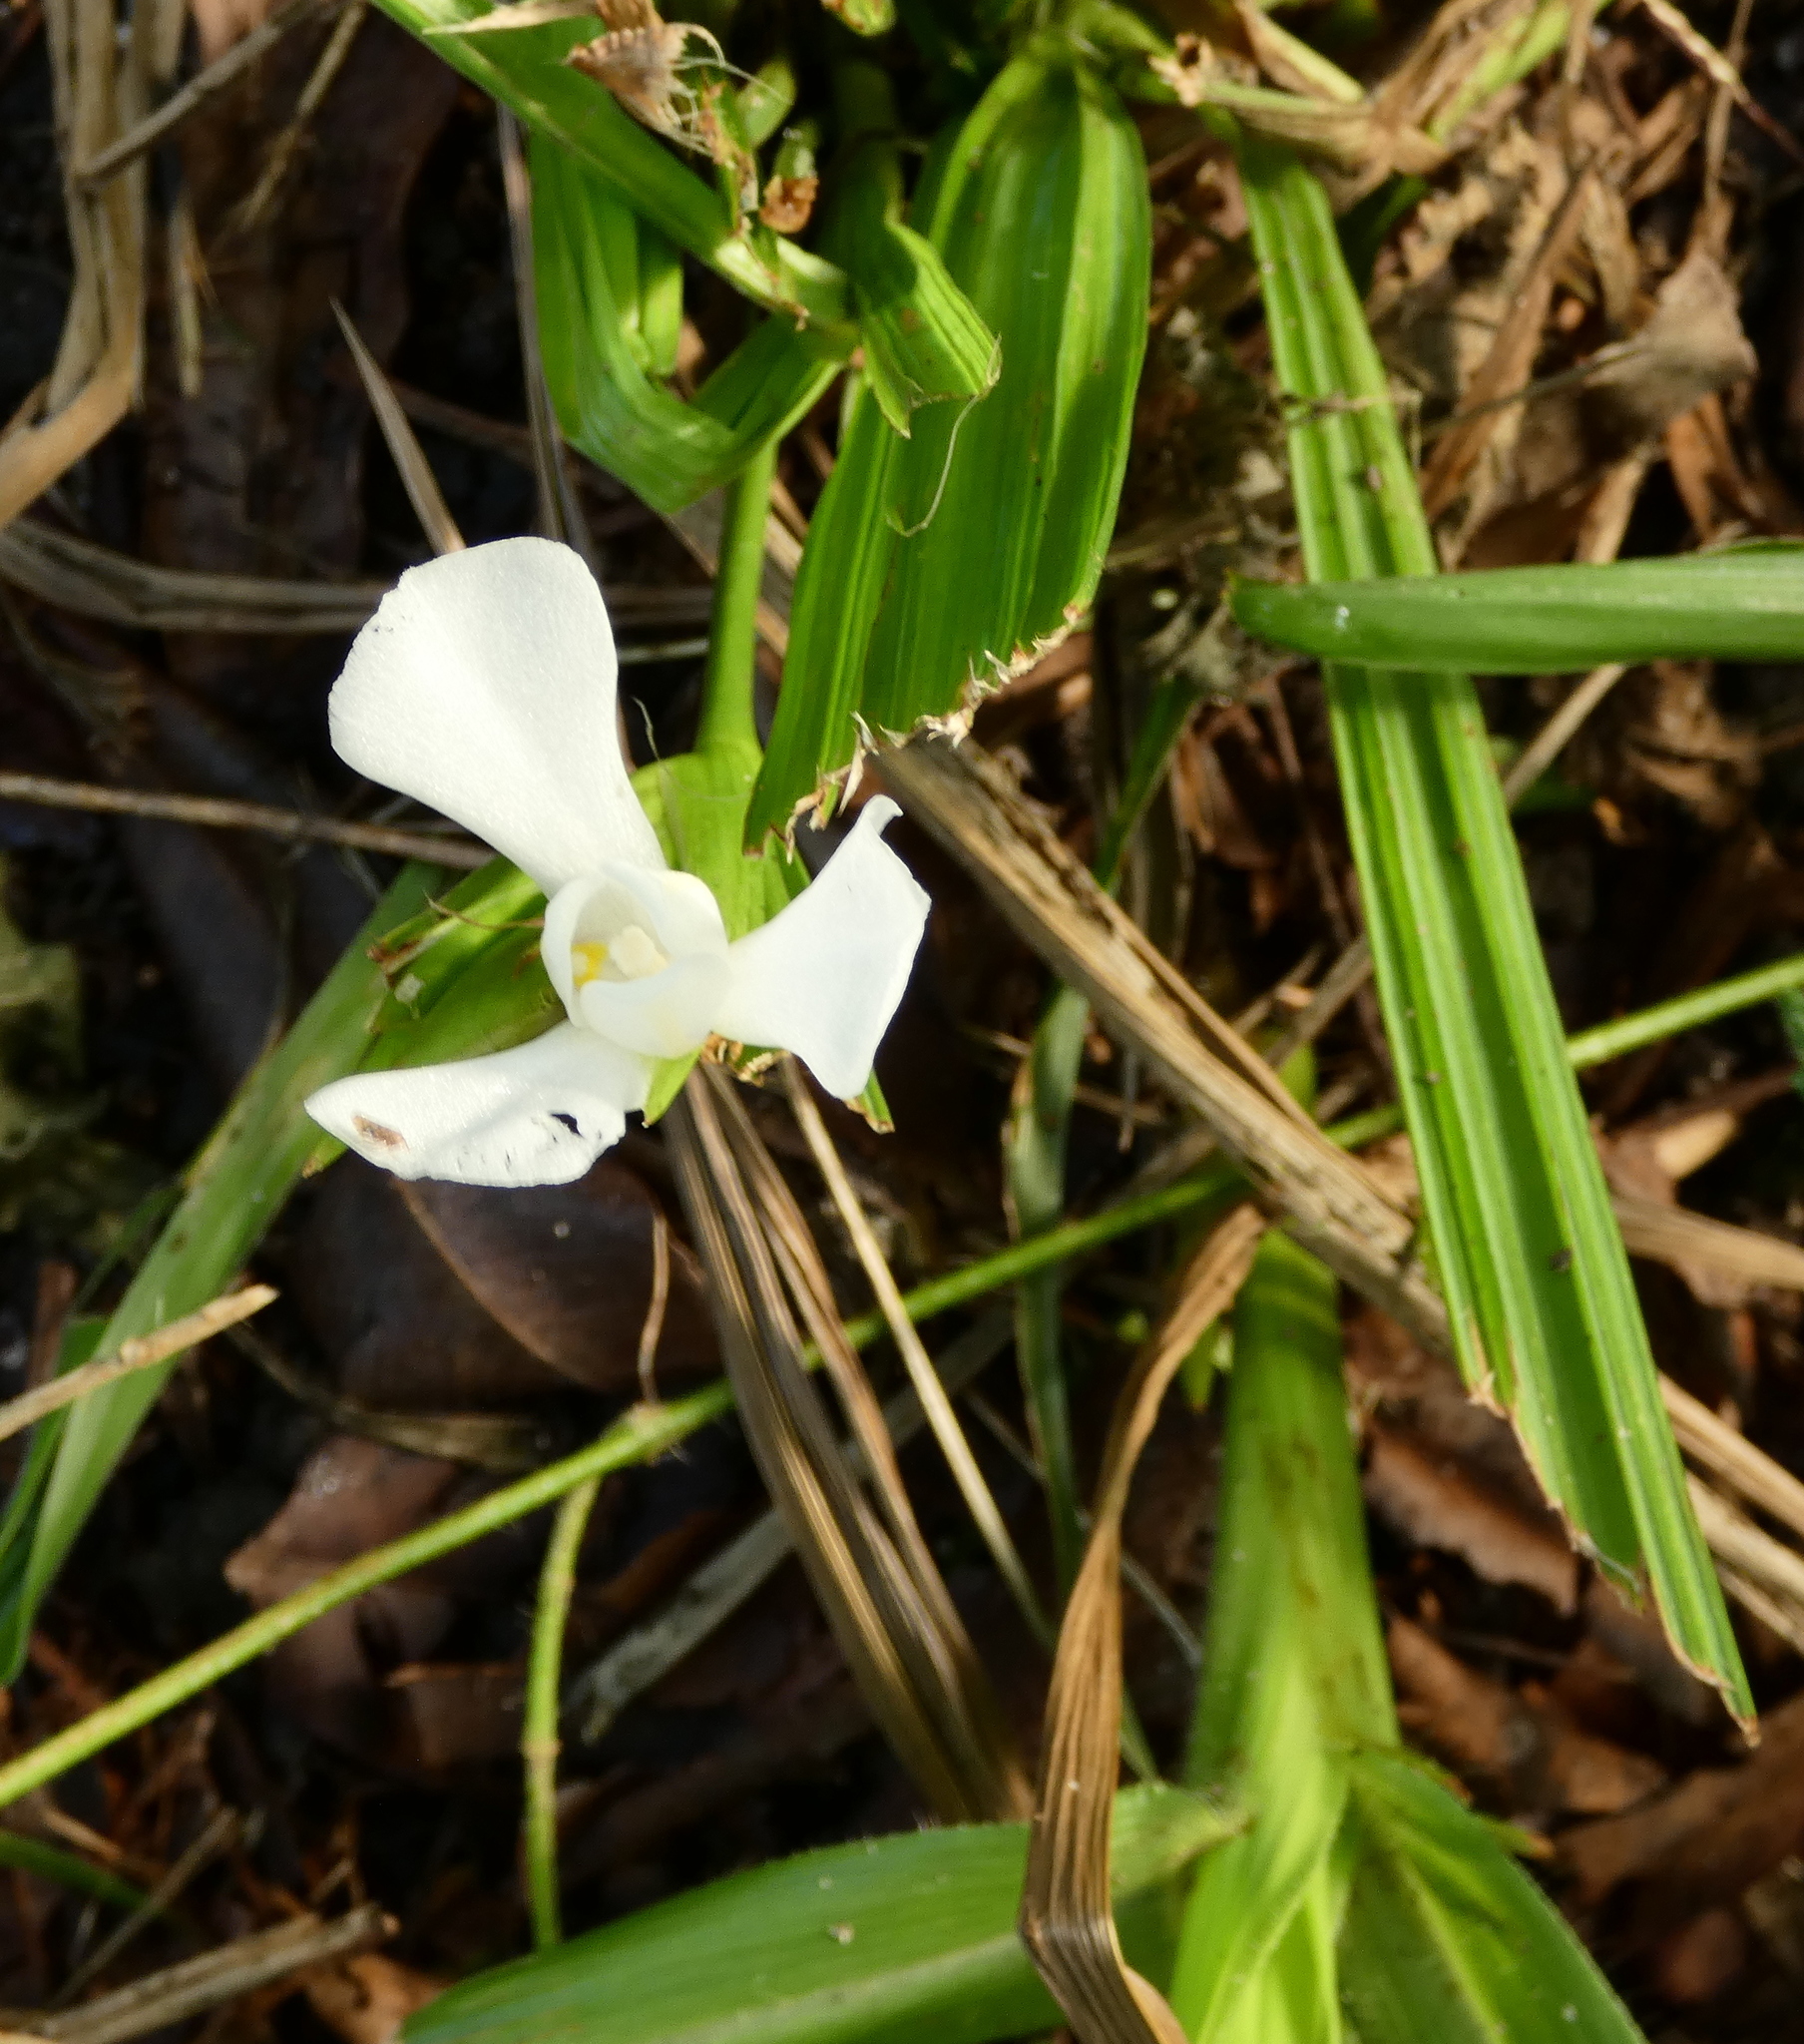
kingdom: Plantae
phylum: Tracheophyta
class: Liliopsida
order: Asparagales
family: Iridaceae
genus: Cipura
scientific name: Cipura paludosa
